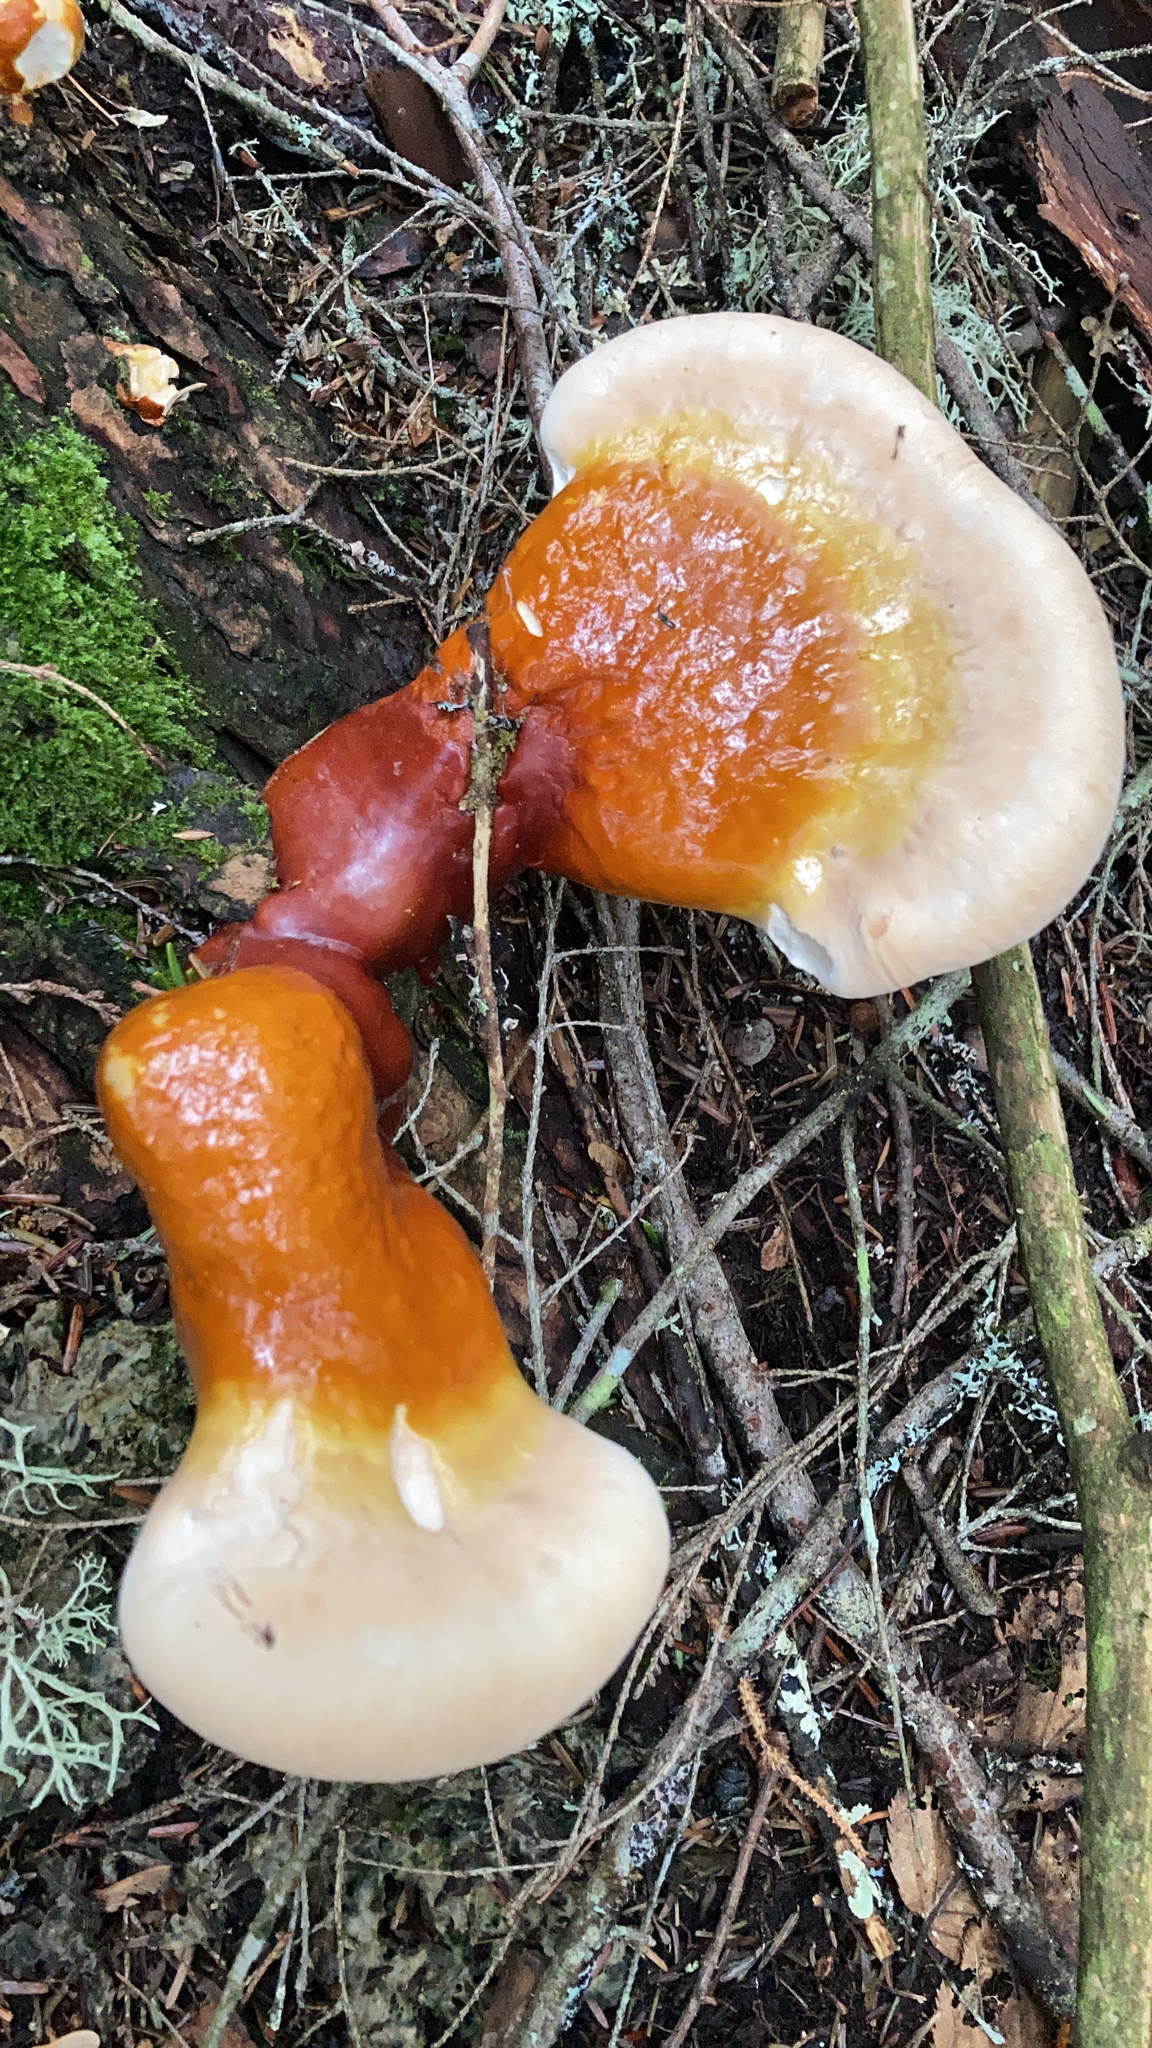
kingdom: Fungi
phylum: Basidiomycota
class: Agaricomycetes
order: Polyporales
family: Polyporaceae
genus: Ganoderma
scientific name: Ganoderma tsugae
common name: Hemlock varnish shelf
